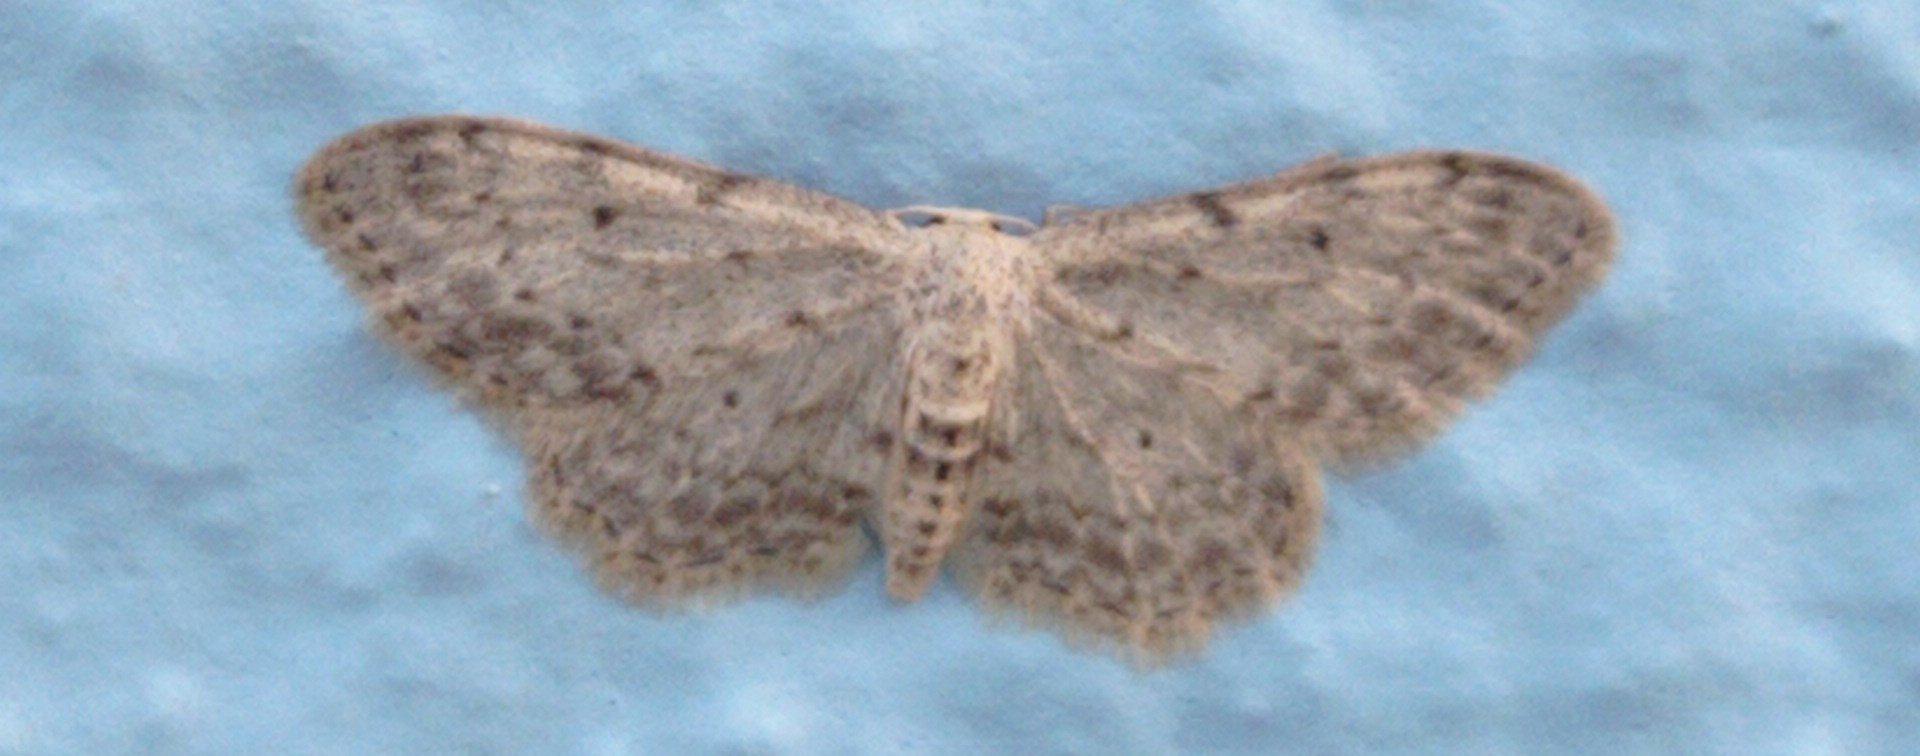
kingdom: Animalia
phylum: Arthropoda
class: Insecta
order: Lepidoptera
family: Geometridae
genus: Idaea
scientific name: Idaea incisaria
